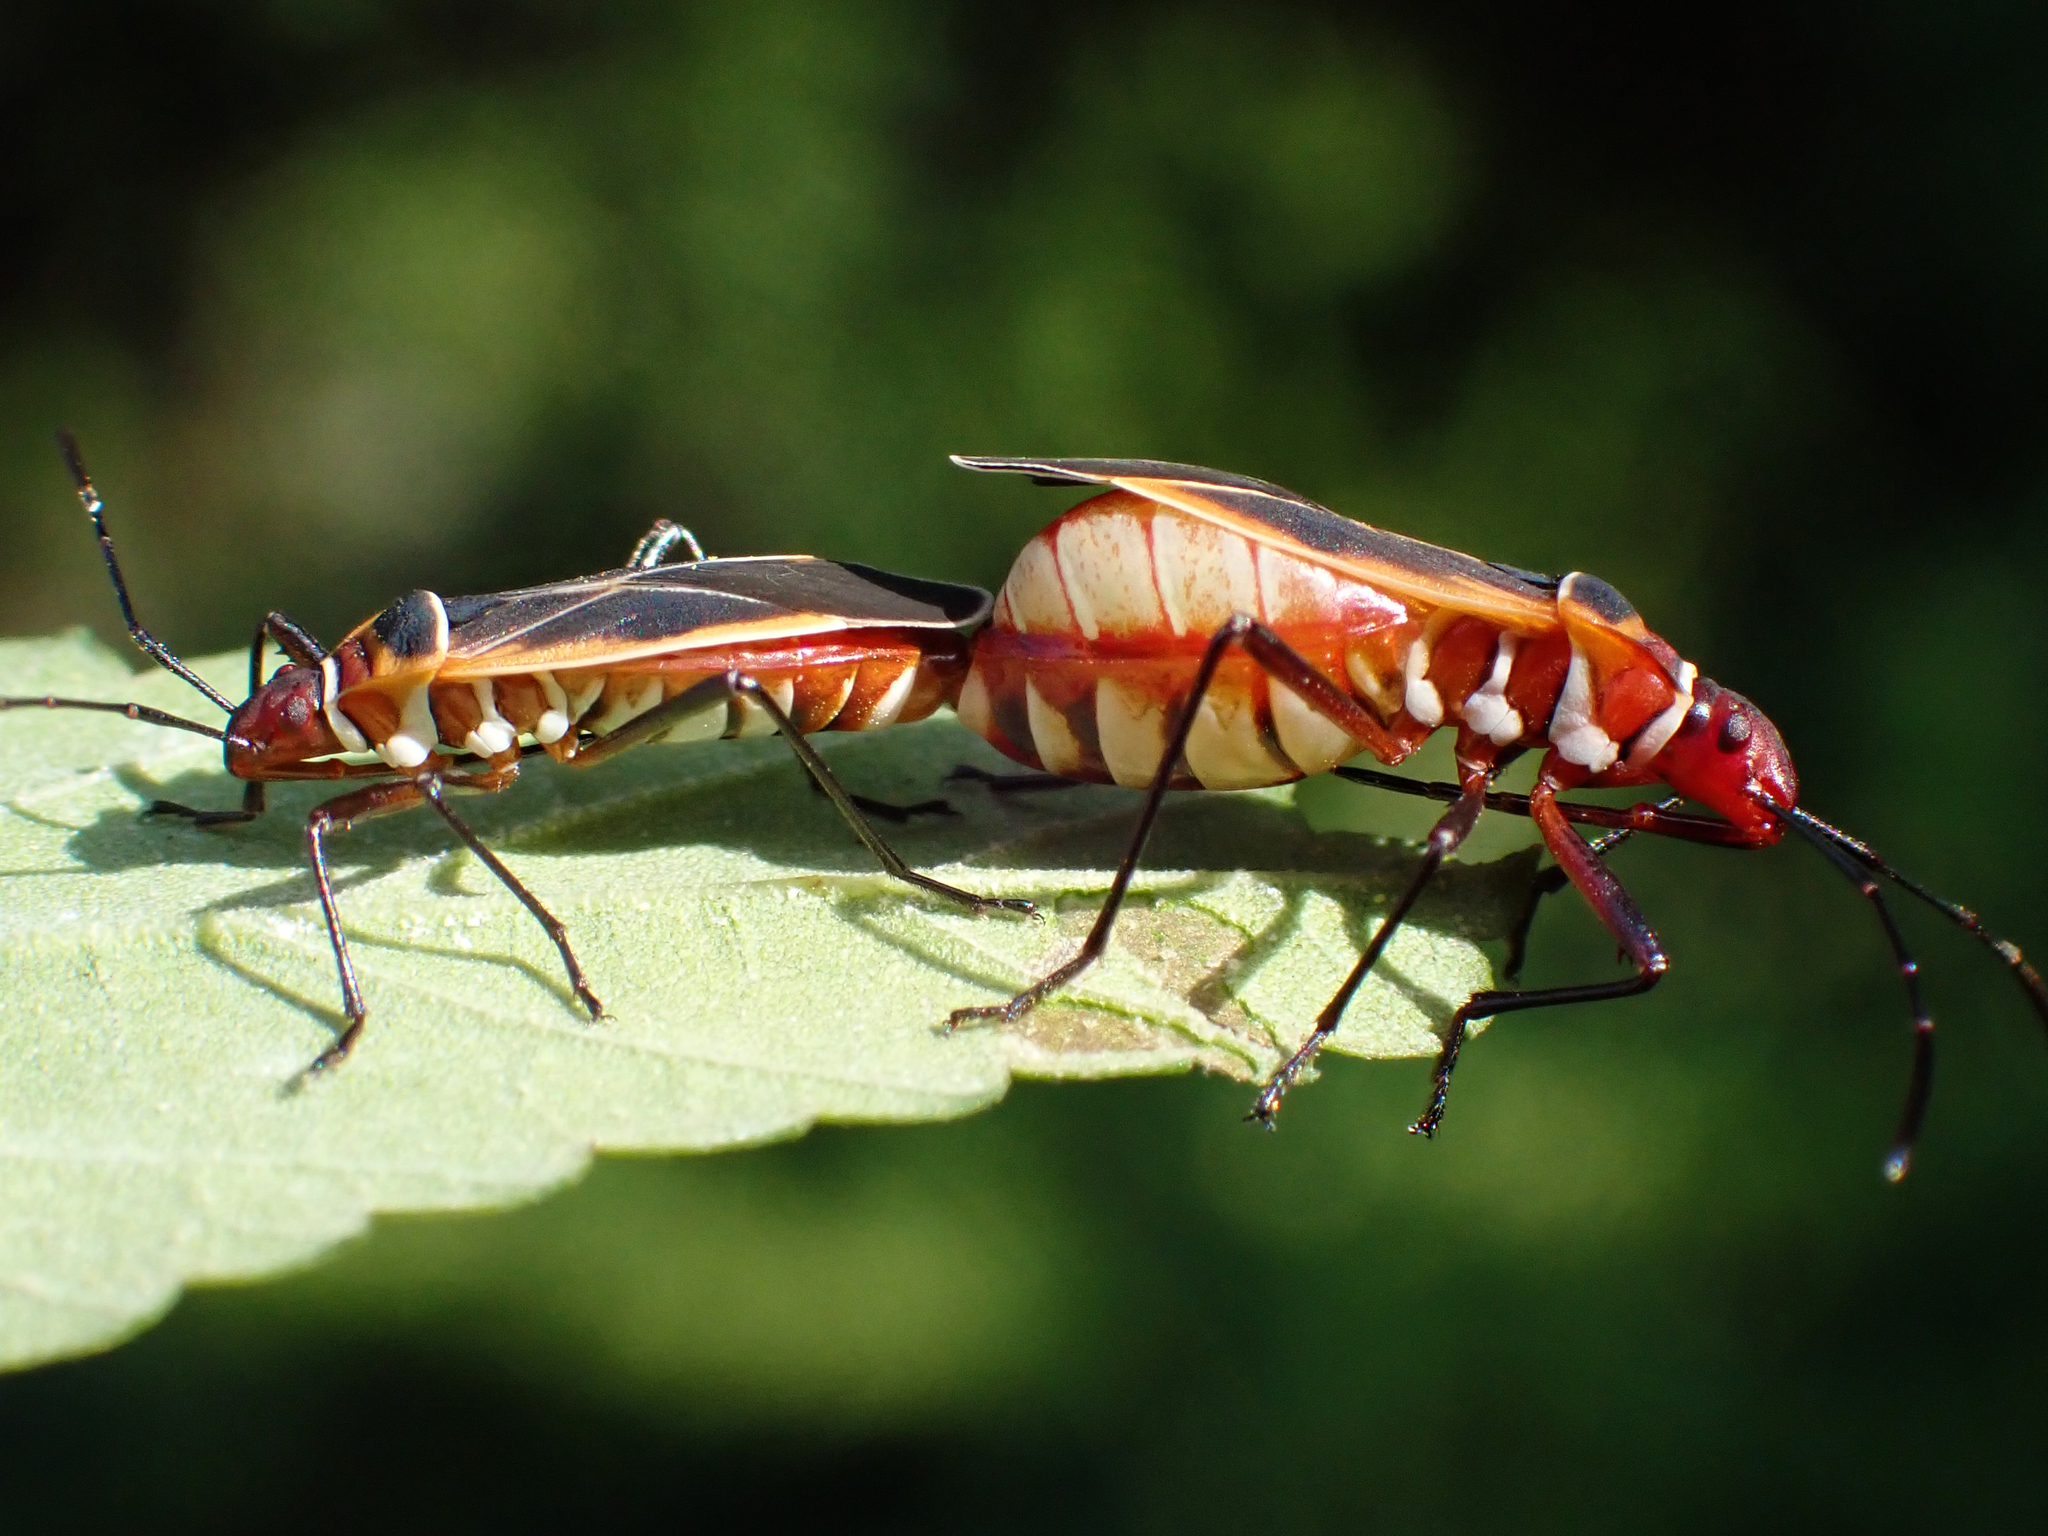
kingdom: Animalia
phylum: Arthropoda
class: Insecta
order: Hemiptera
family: Pyrrhocoridae
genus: Dysdercus
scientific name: Dysdercus mimulus
